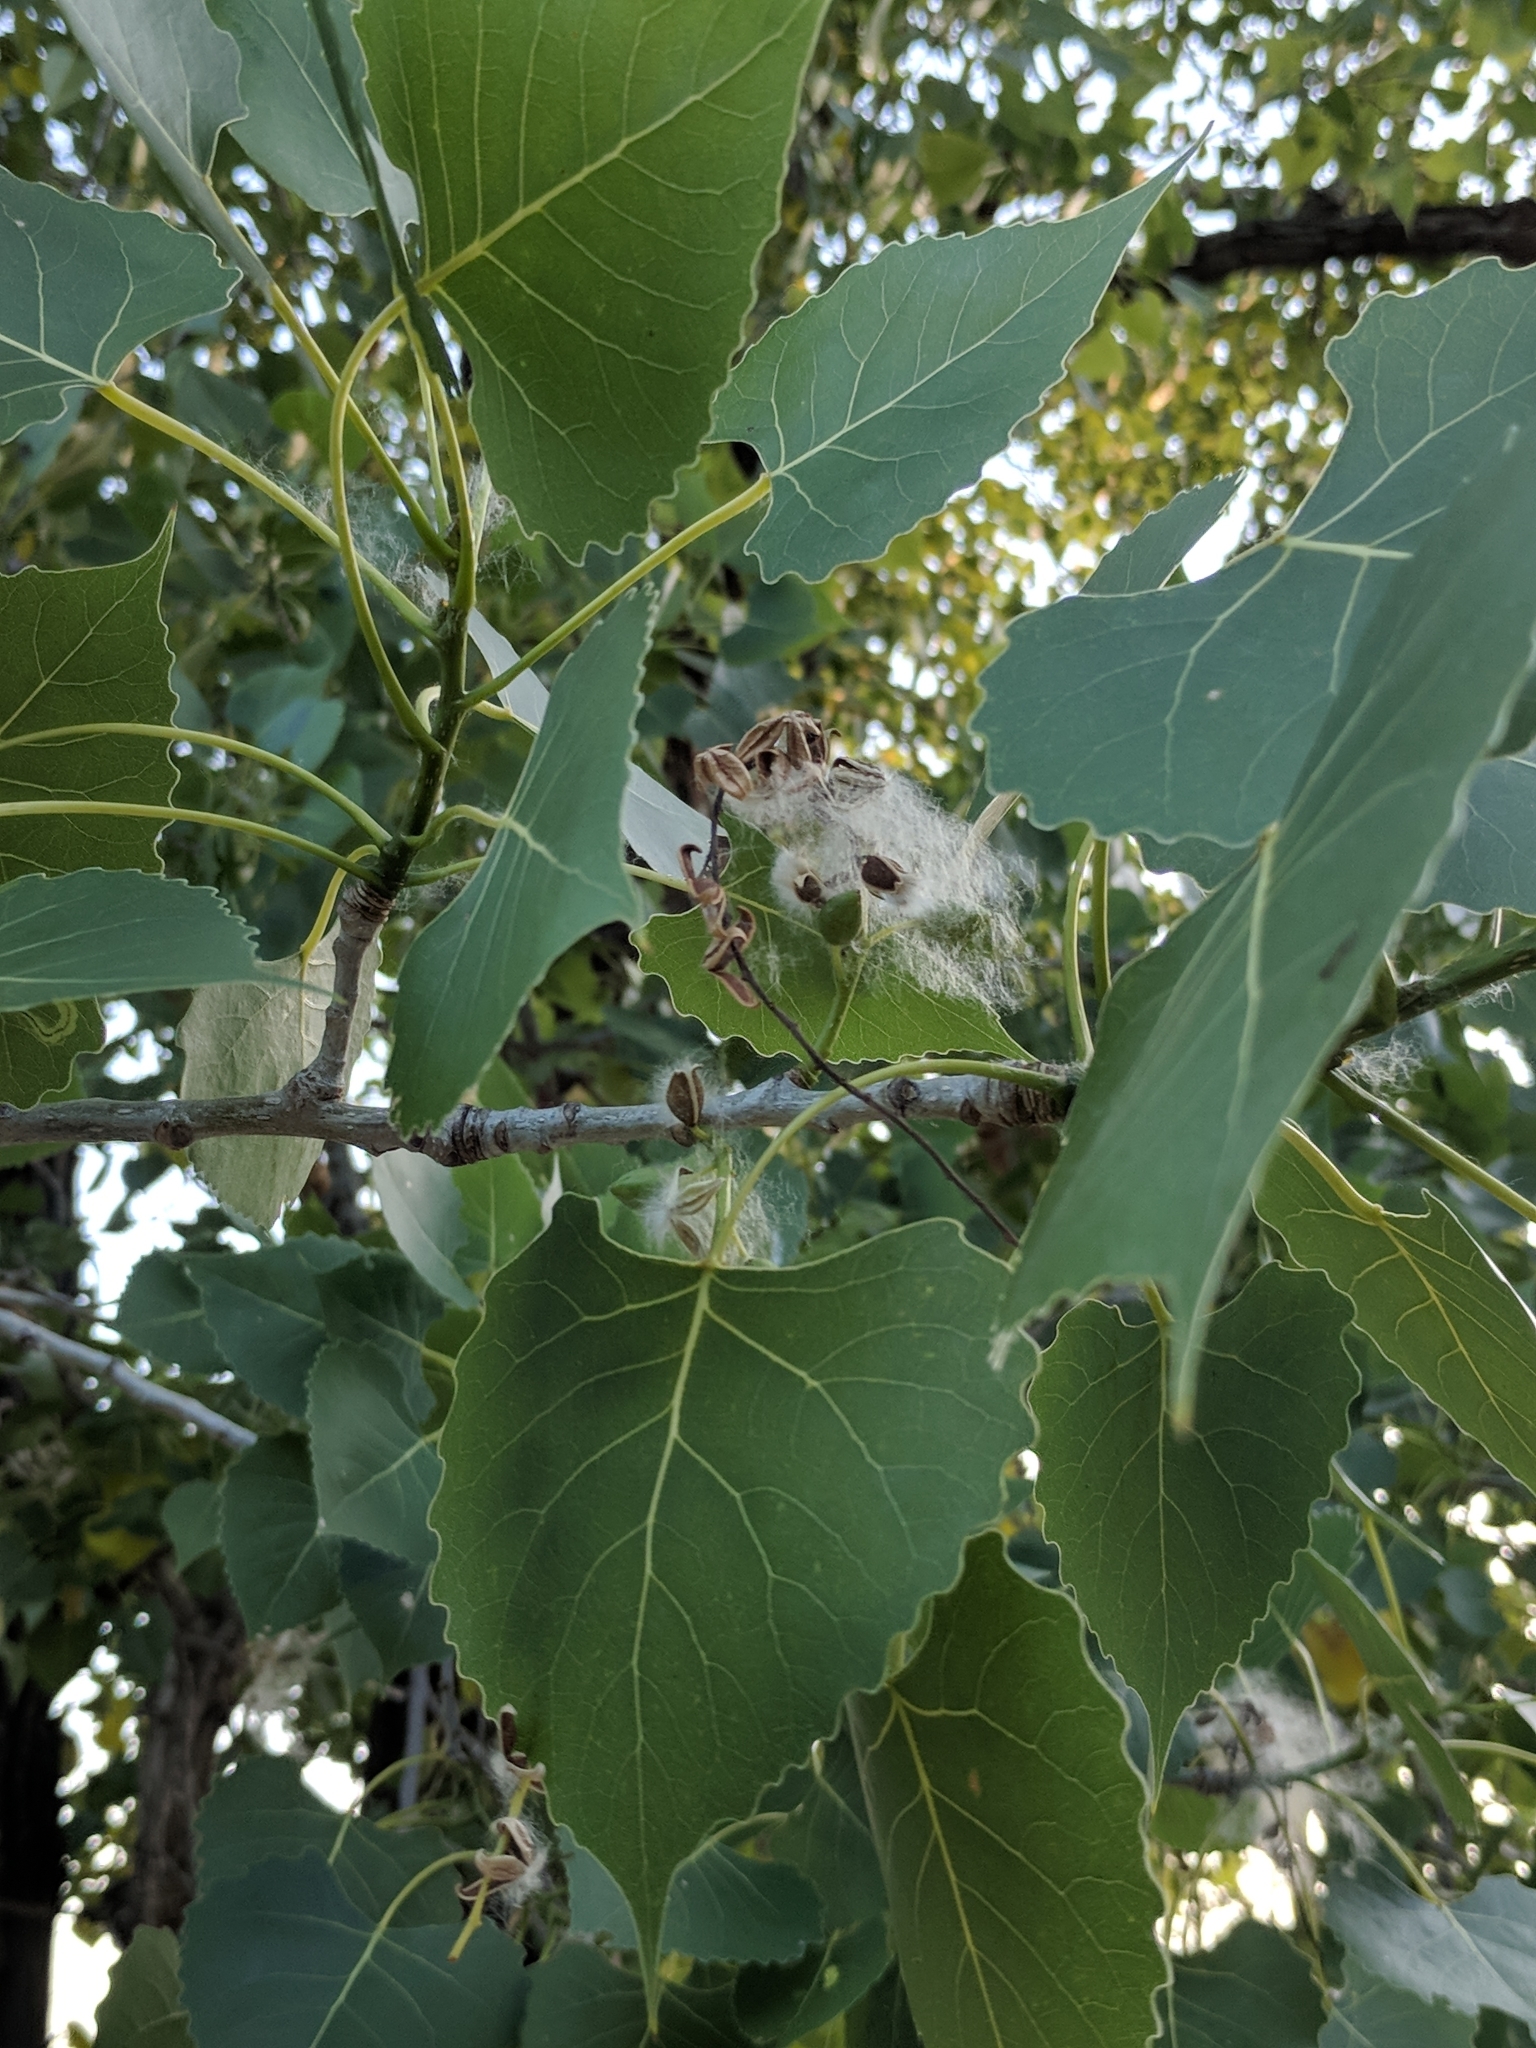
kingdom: Plantae
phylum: Tracheophyta
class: Magnoliopsida
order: Malpighiales
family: Salicaceae
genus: Populus
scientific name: Populus deltoides
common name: Eastern cottonwood
